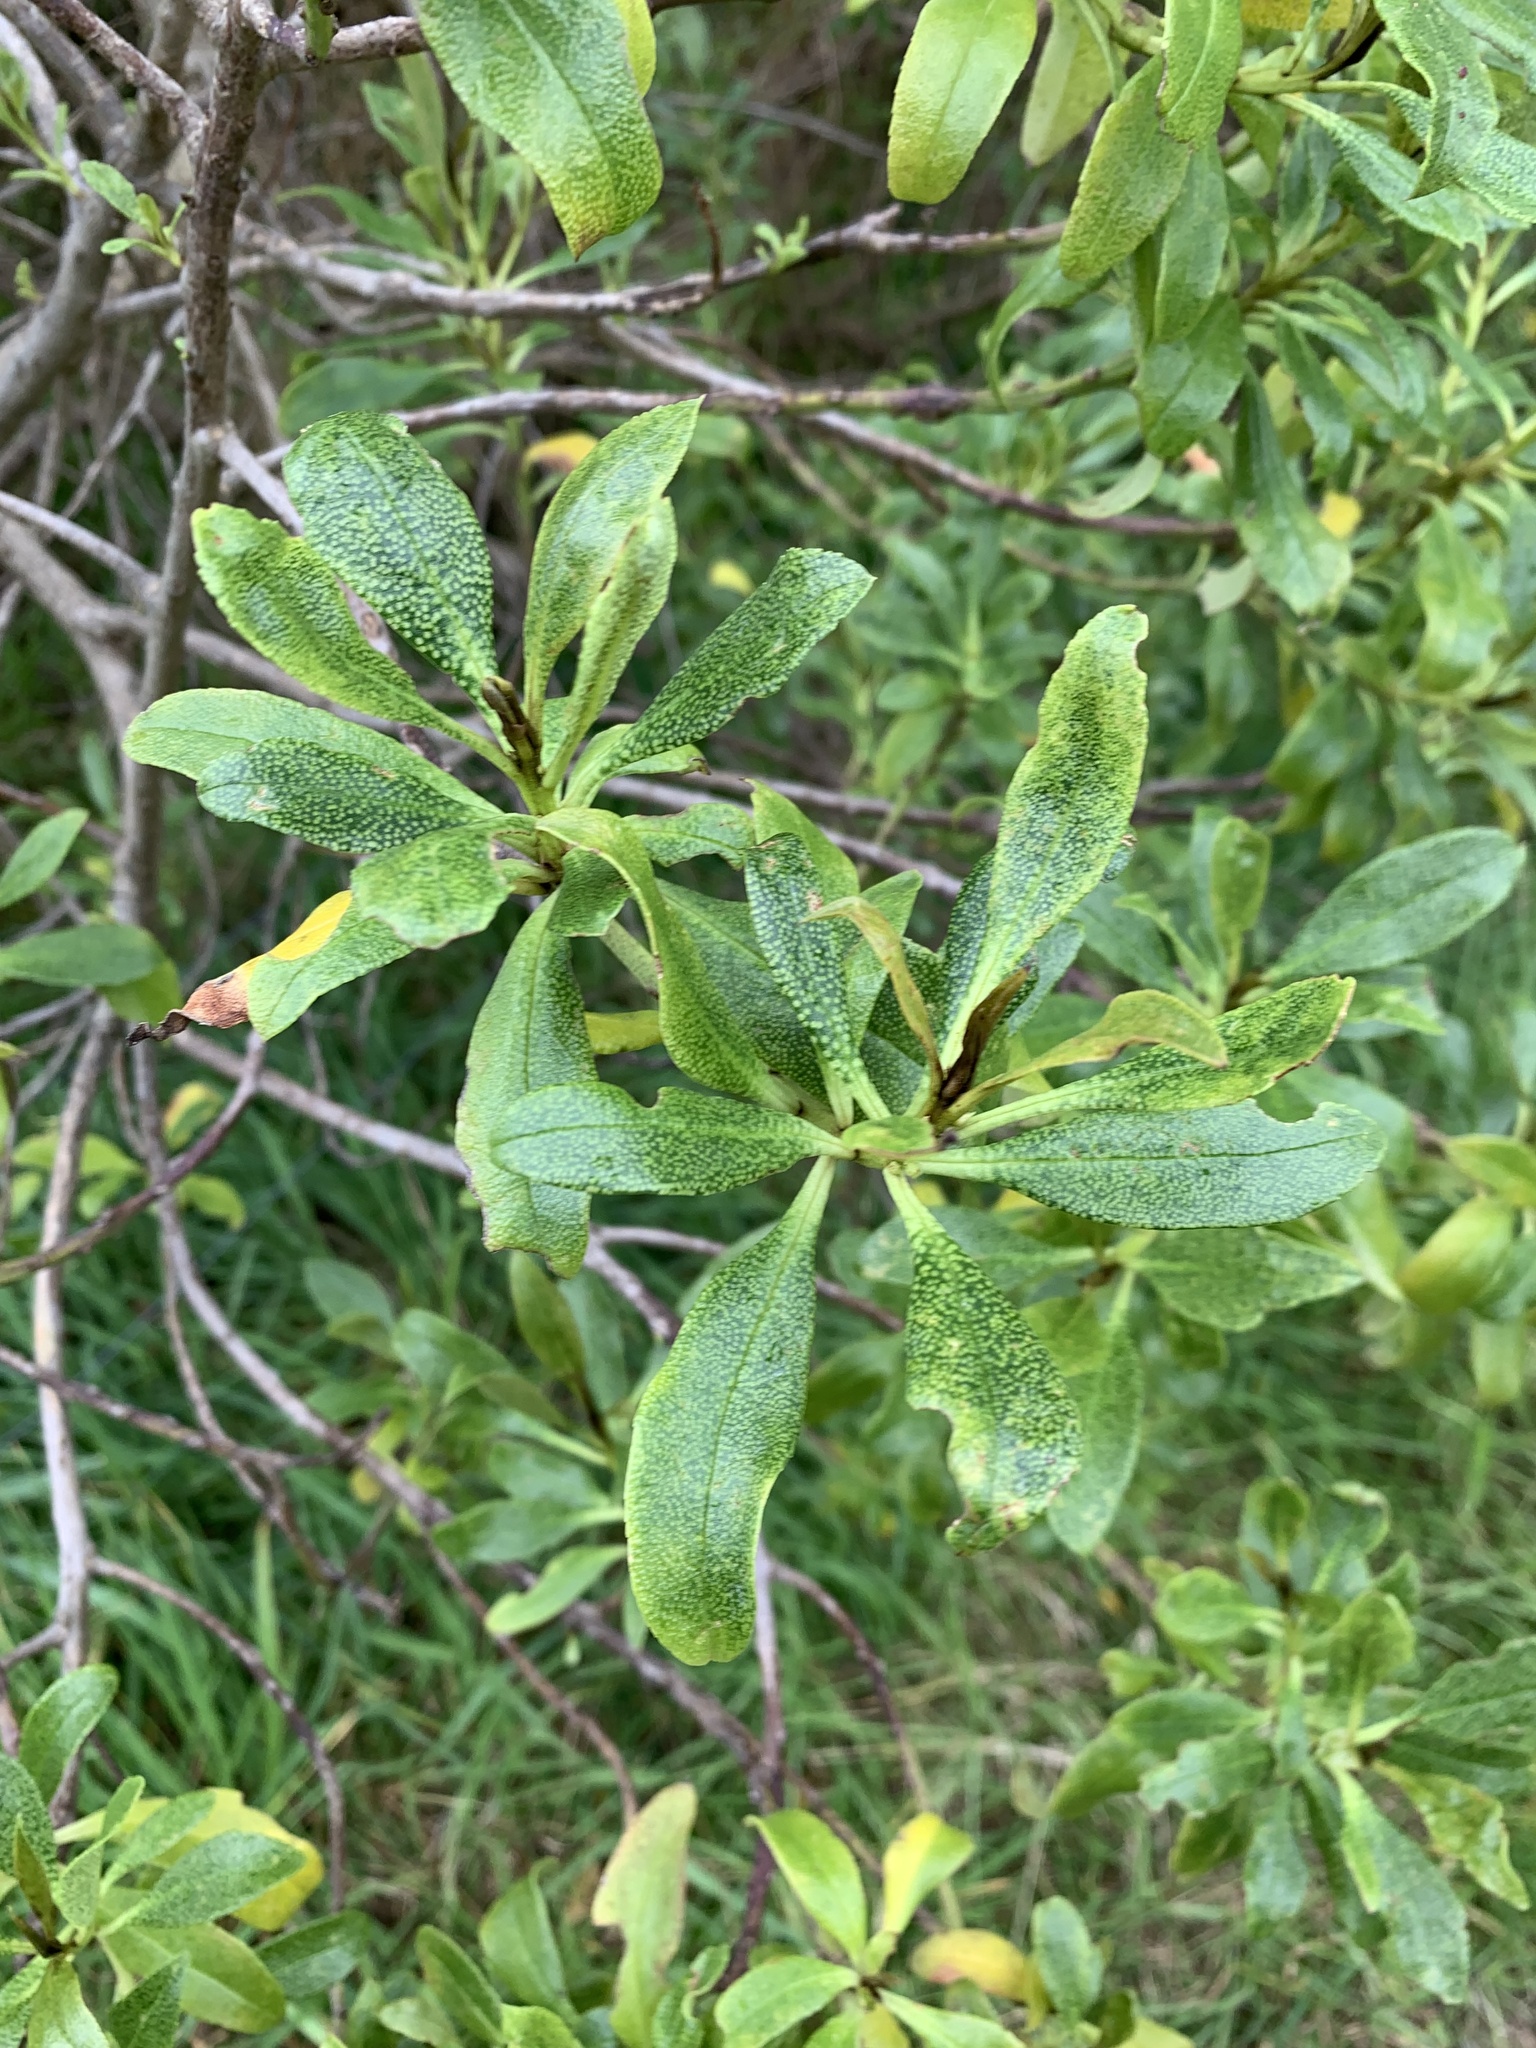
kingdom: Plantae
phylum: Tracheophyta
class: Magnoliopsida
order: Lamiales
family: Scrophulariaceae
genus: Myoporum
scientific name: Myoporum laetum
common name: Ngaio tree
